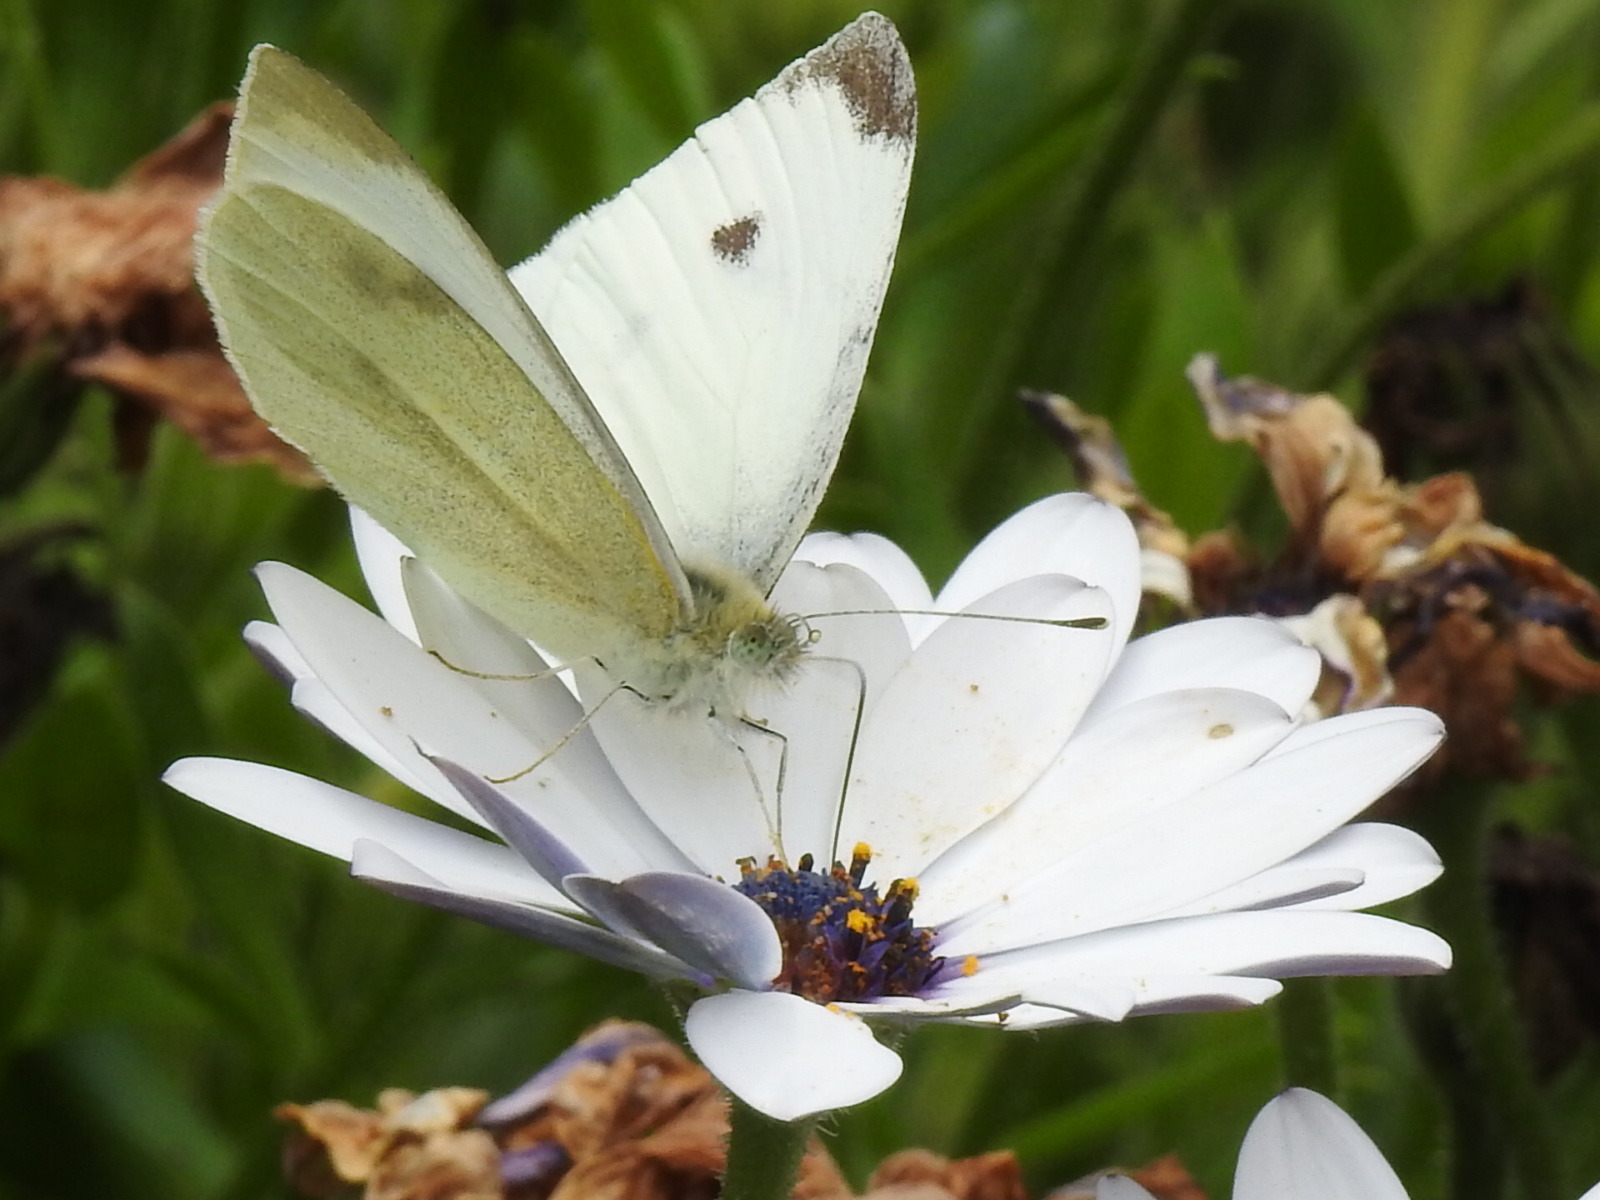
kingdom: Animalia
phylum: Arthropoda
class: Insecta
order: Lepidoptera
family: Pieridae
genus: Pieris
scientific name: Pieris rapae
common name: Small white
